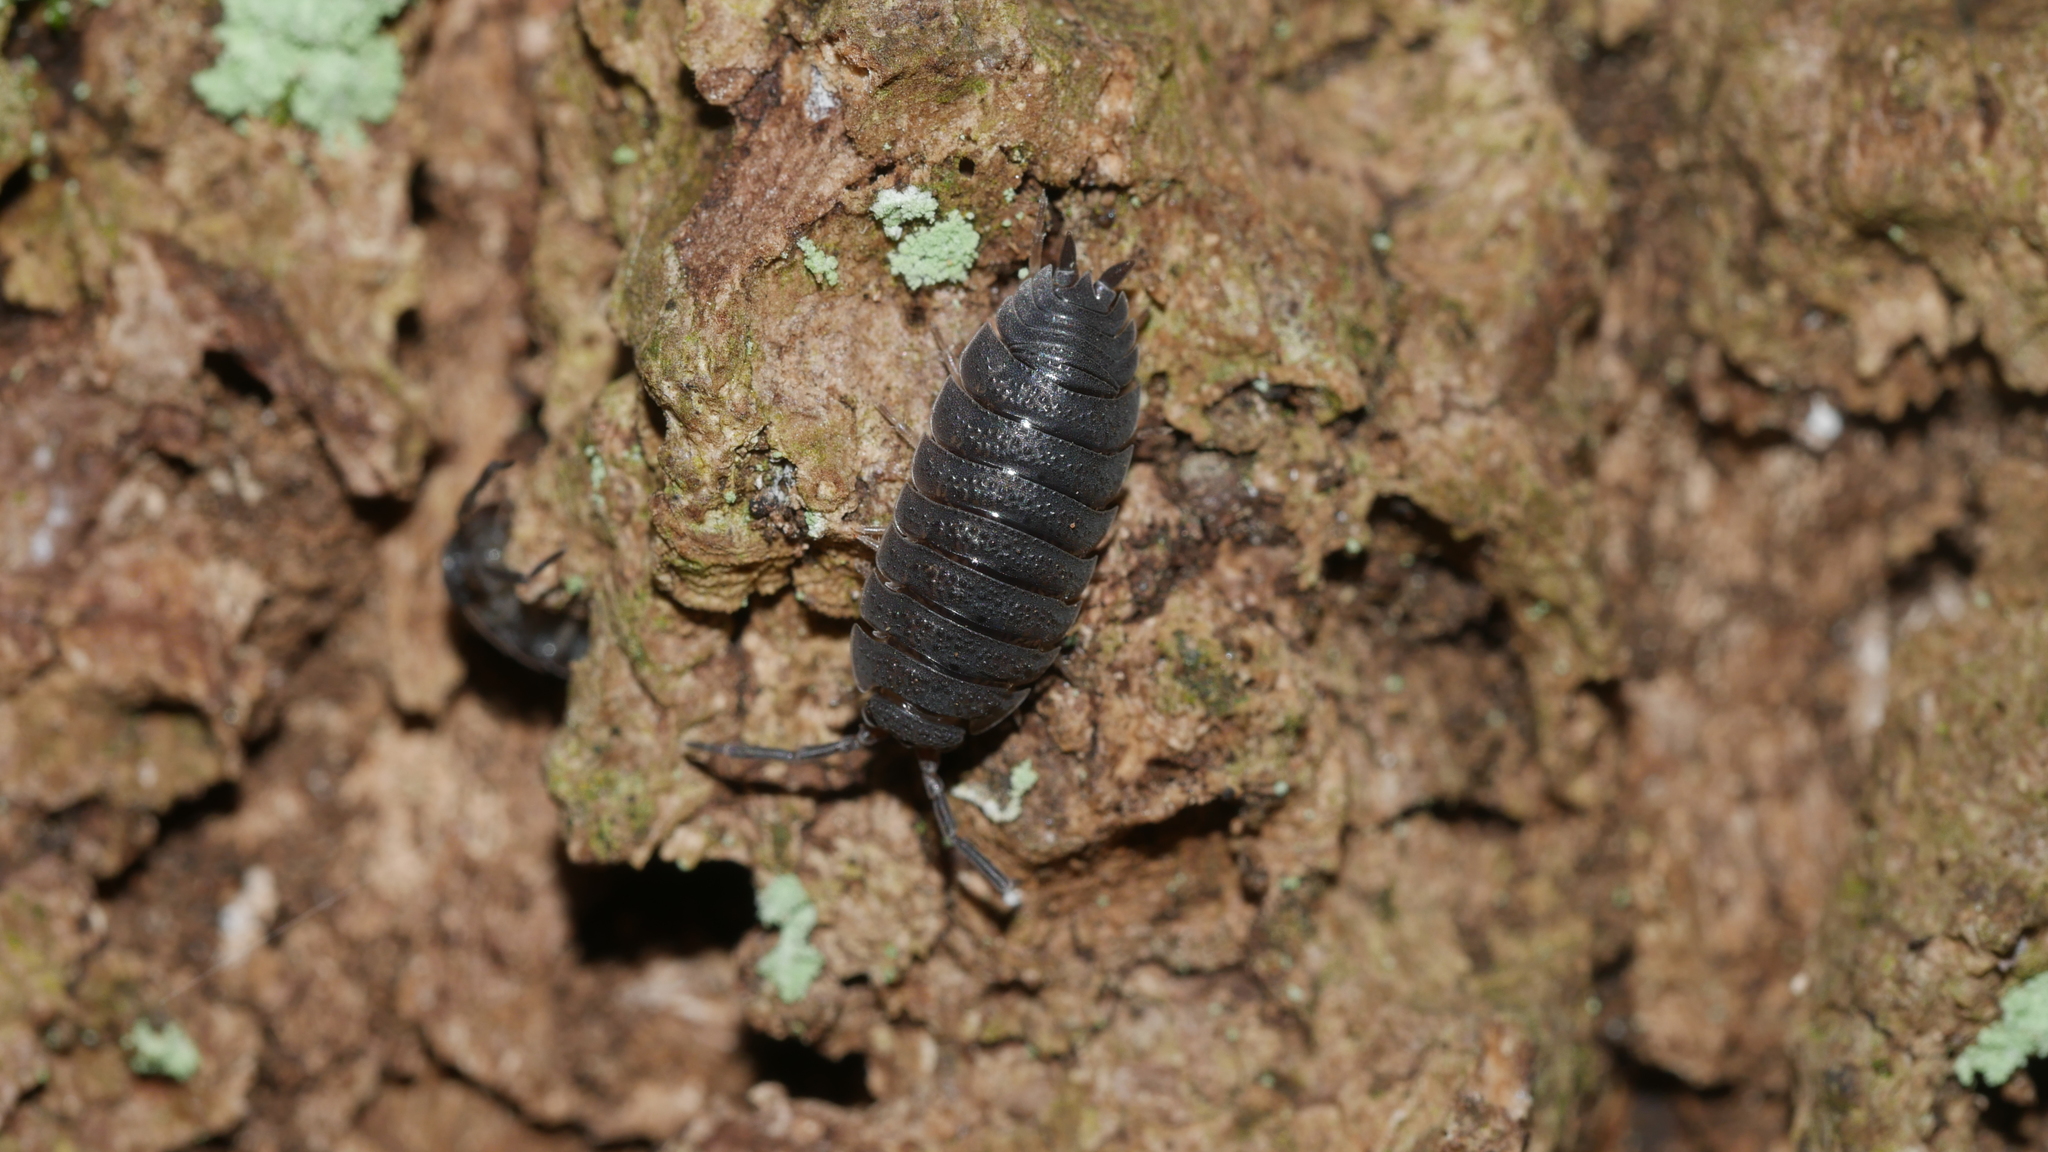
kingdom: Animalia
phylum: Arthropoda
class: Malacostraca
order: Isopoda
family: Porcellionidae
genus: Porcellio
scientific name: Porcellio scaber
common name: Common rough woodlouse
